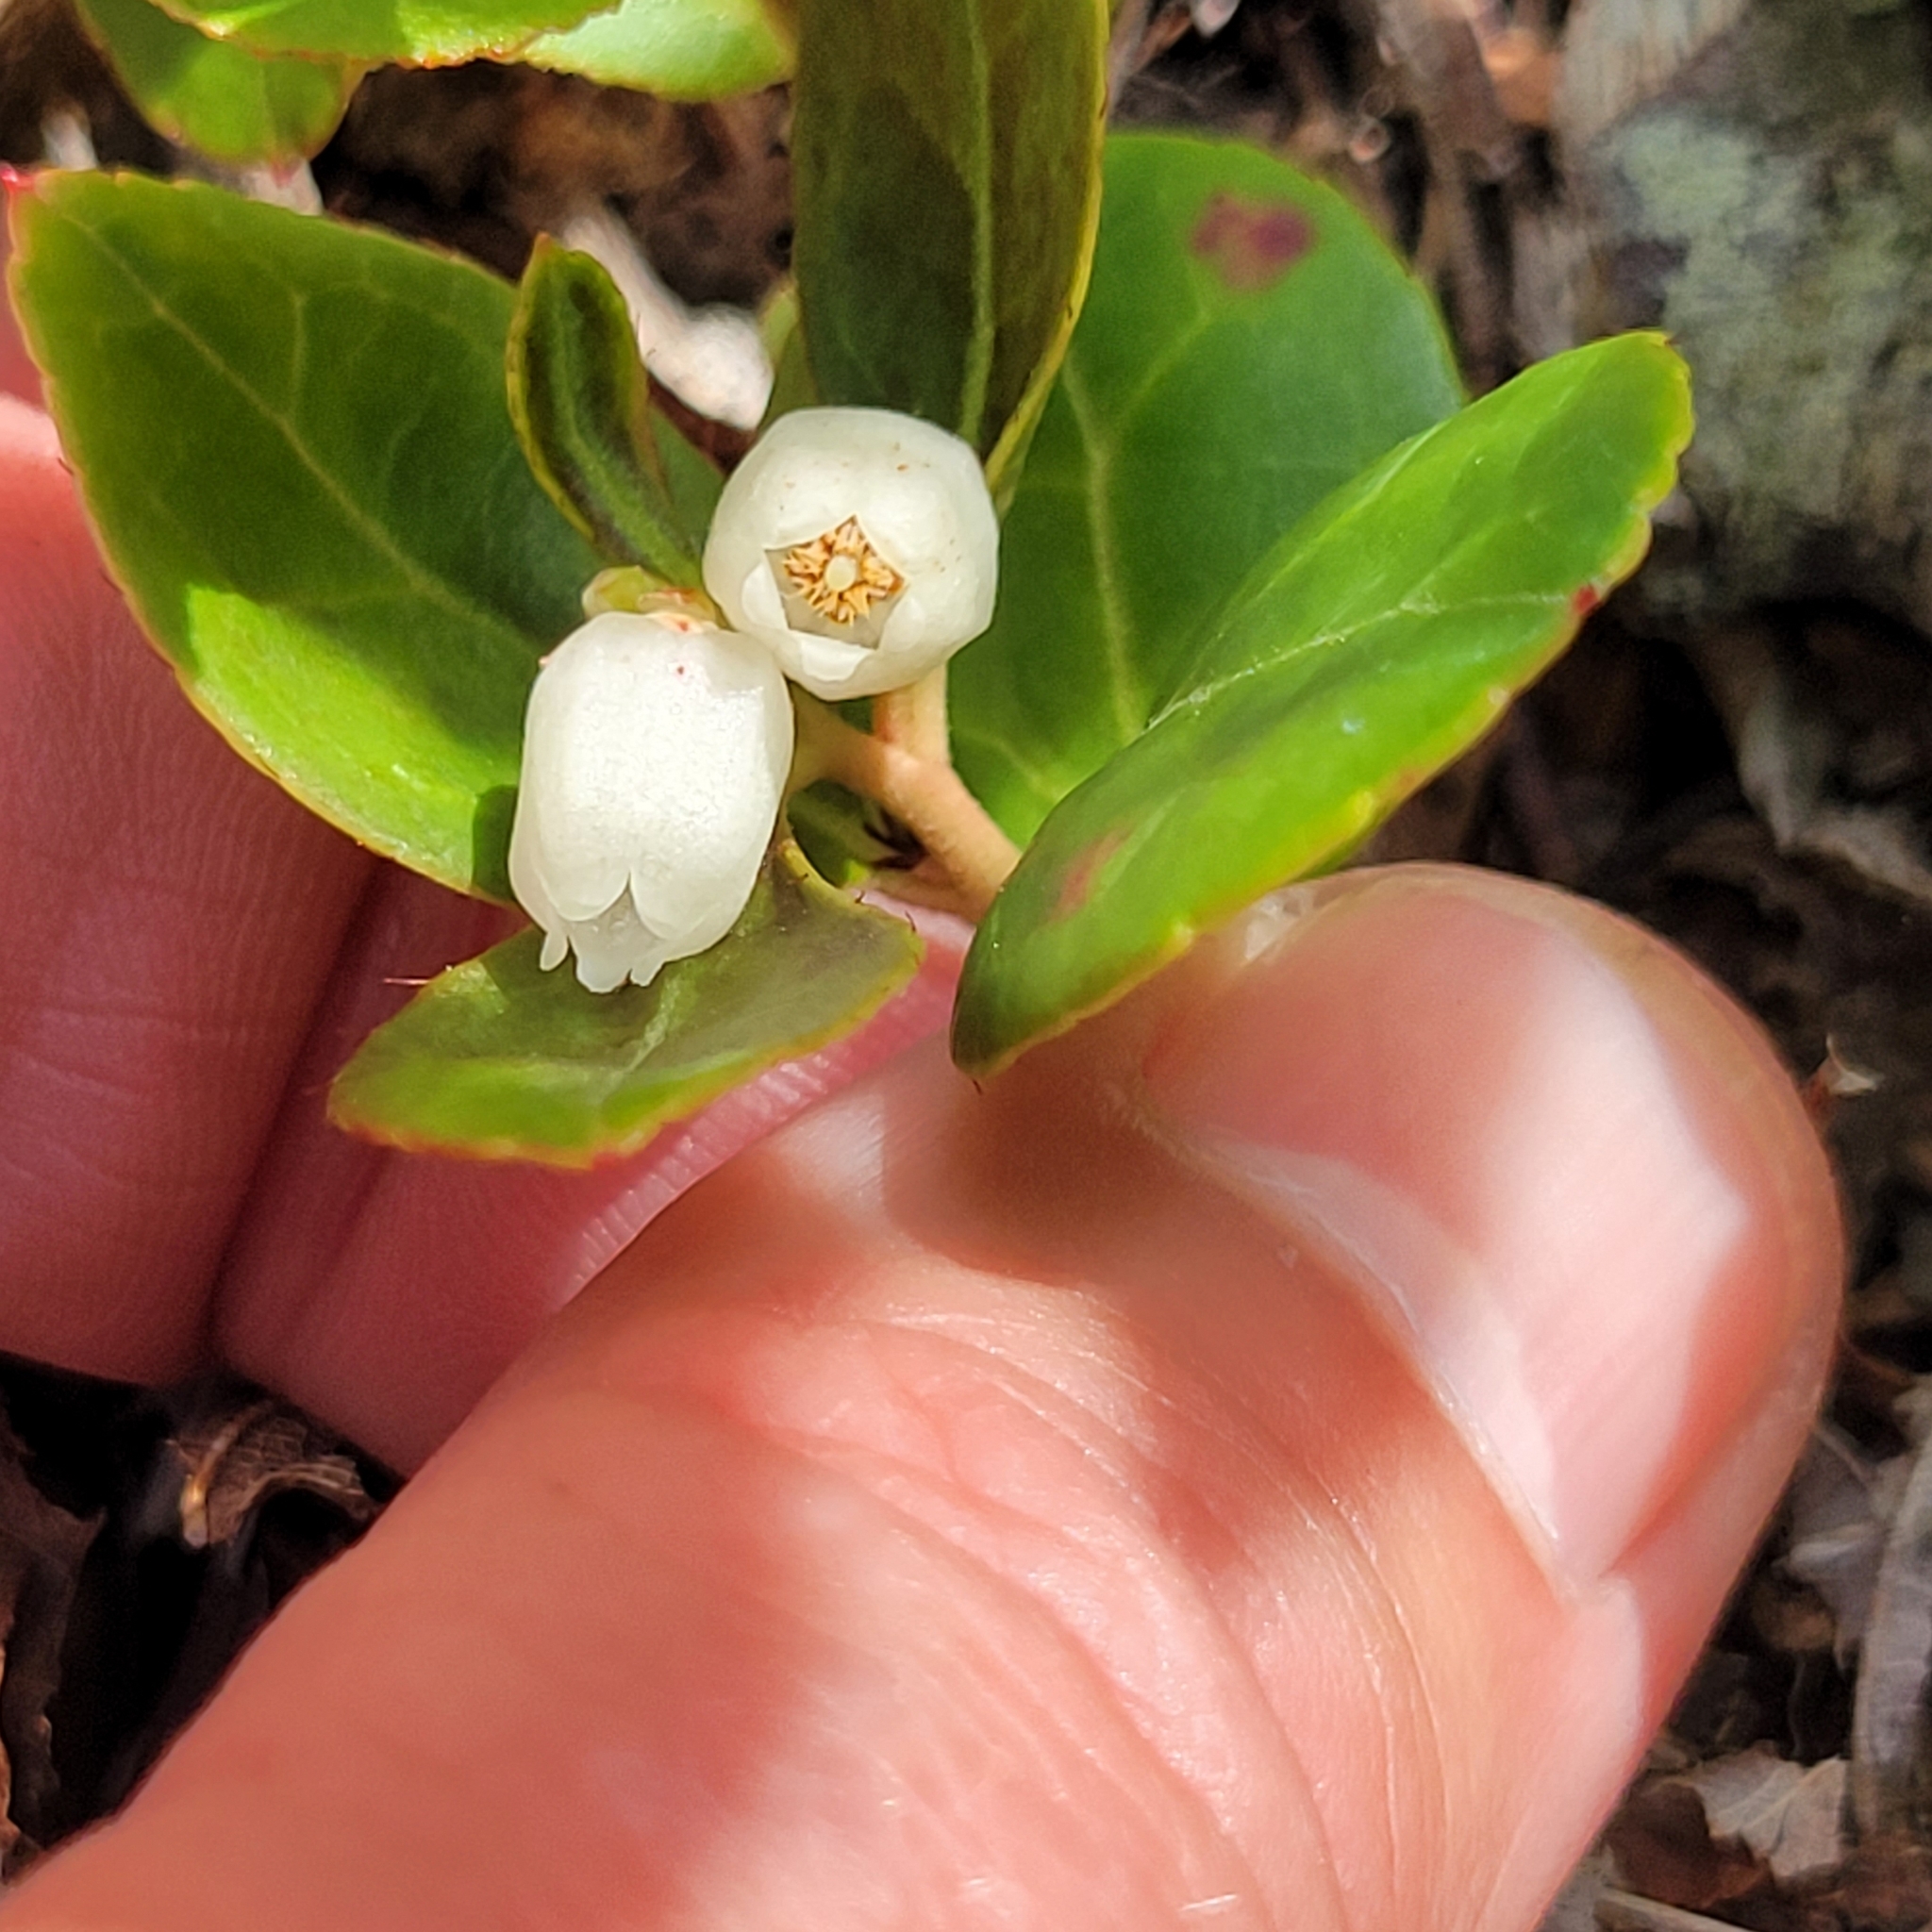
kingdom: Plantae
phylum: Tracheophyta
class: Magnoliopsida
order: Ericales
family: Ericaceae
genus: Gaultheria
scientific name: Gaultheria procumbens
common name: Checkerberry
